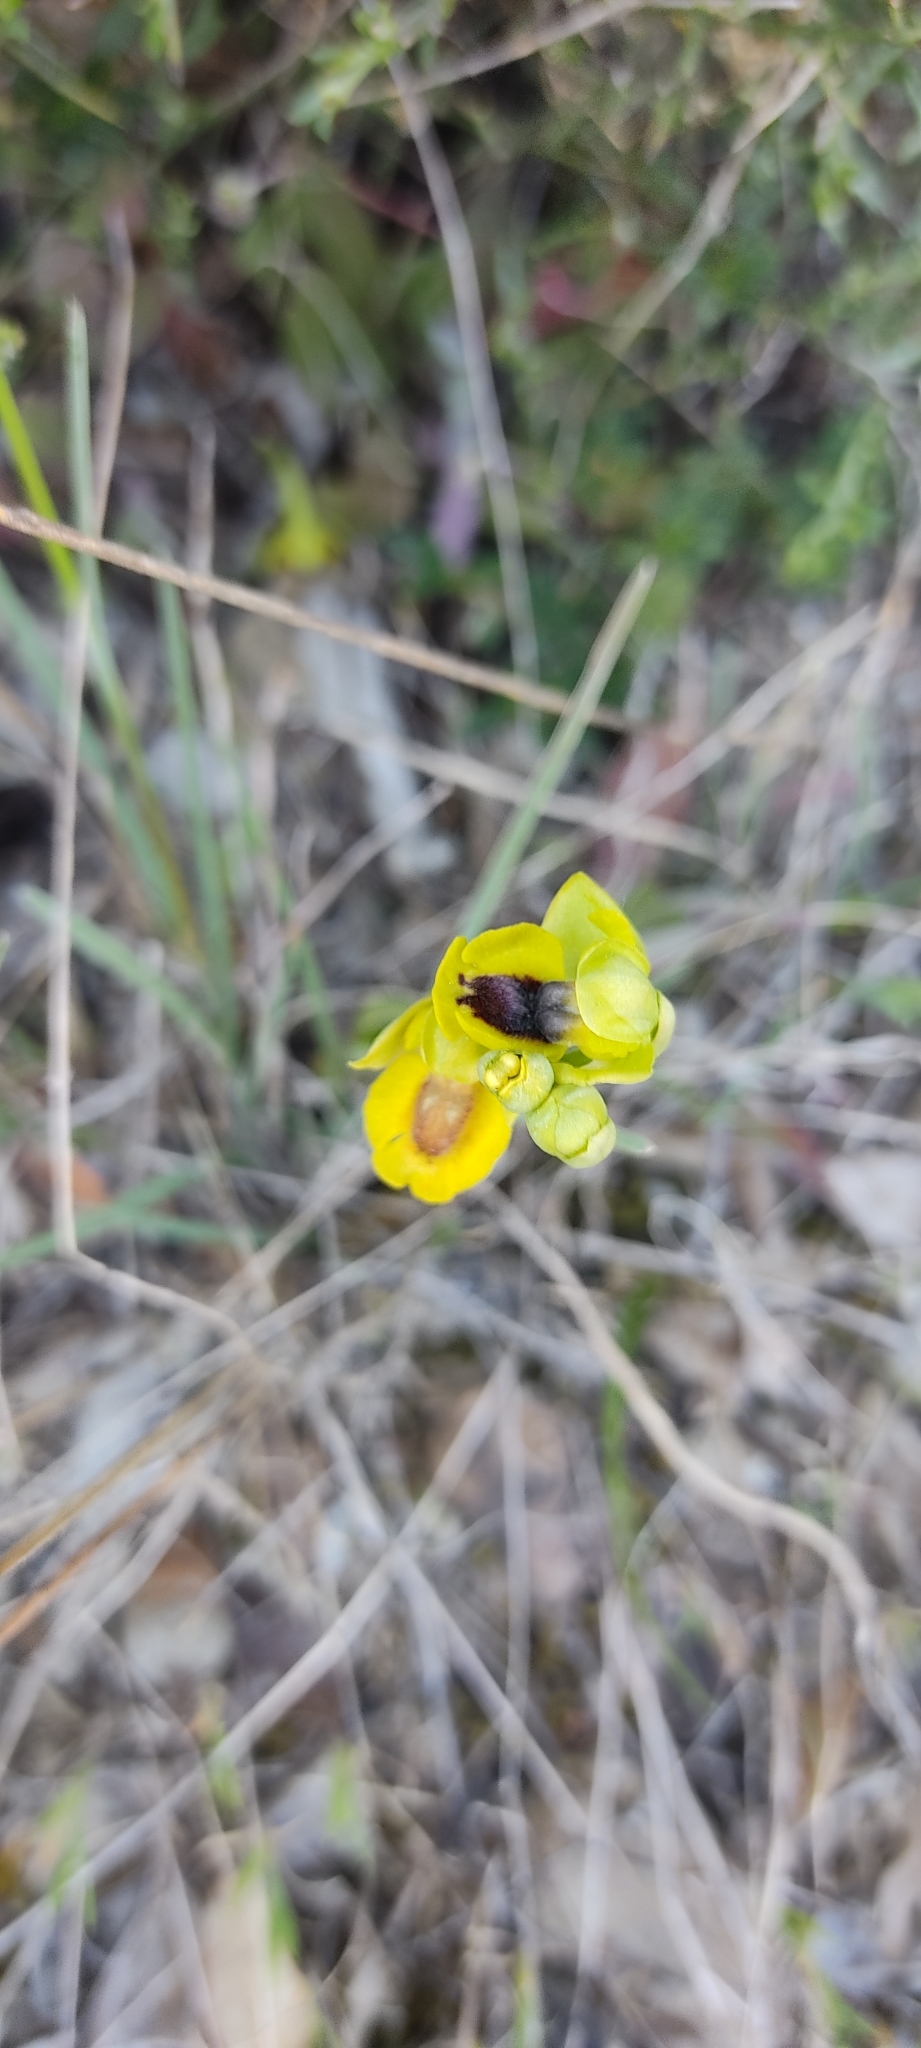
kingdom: Plantae
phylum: Tracheophyta
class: Liliopsida
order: Asparagales
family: Orchidaceae
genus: Ophrys
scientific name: Ophrys lutea
